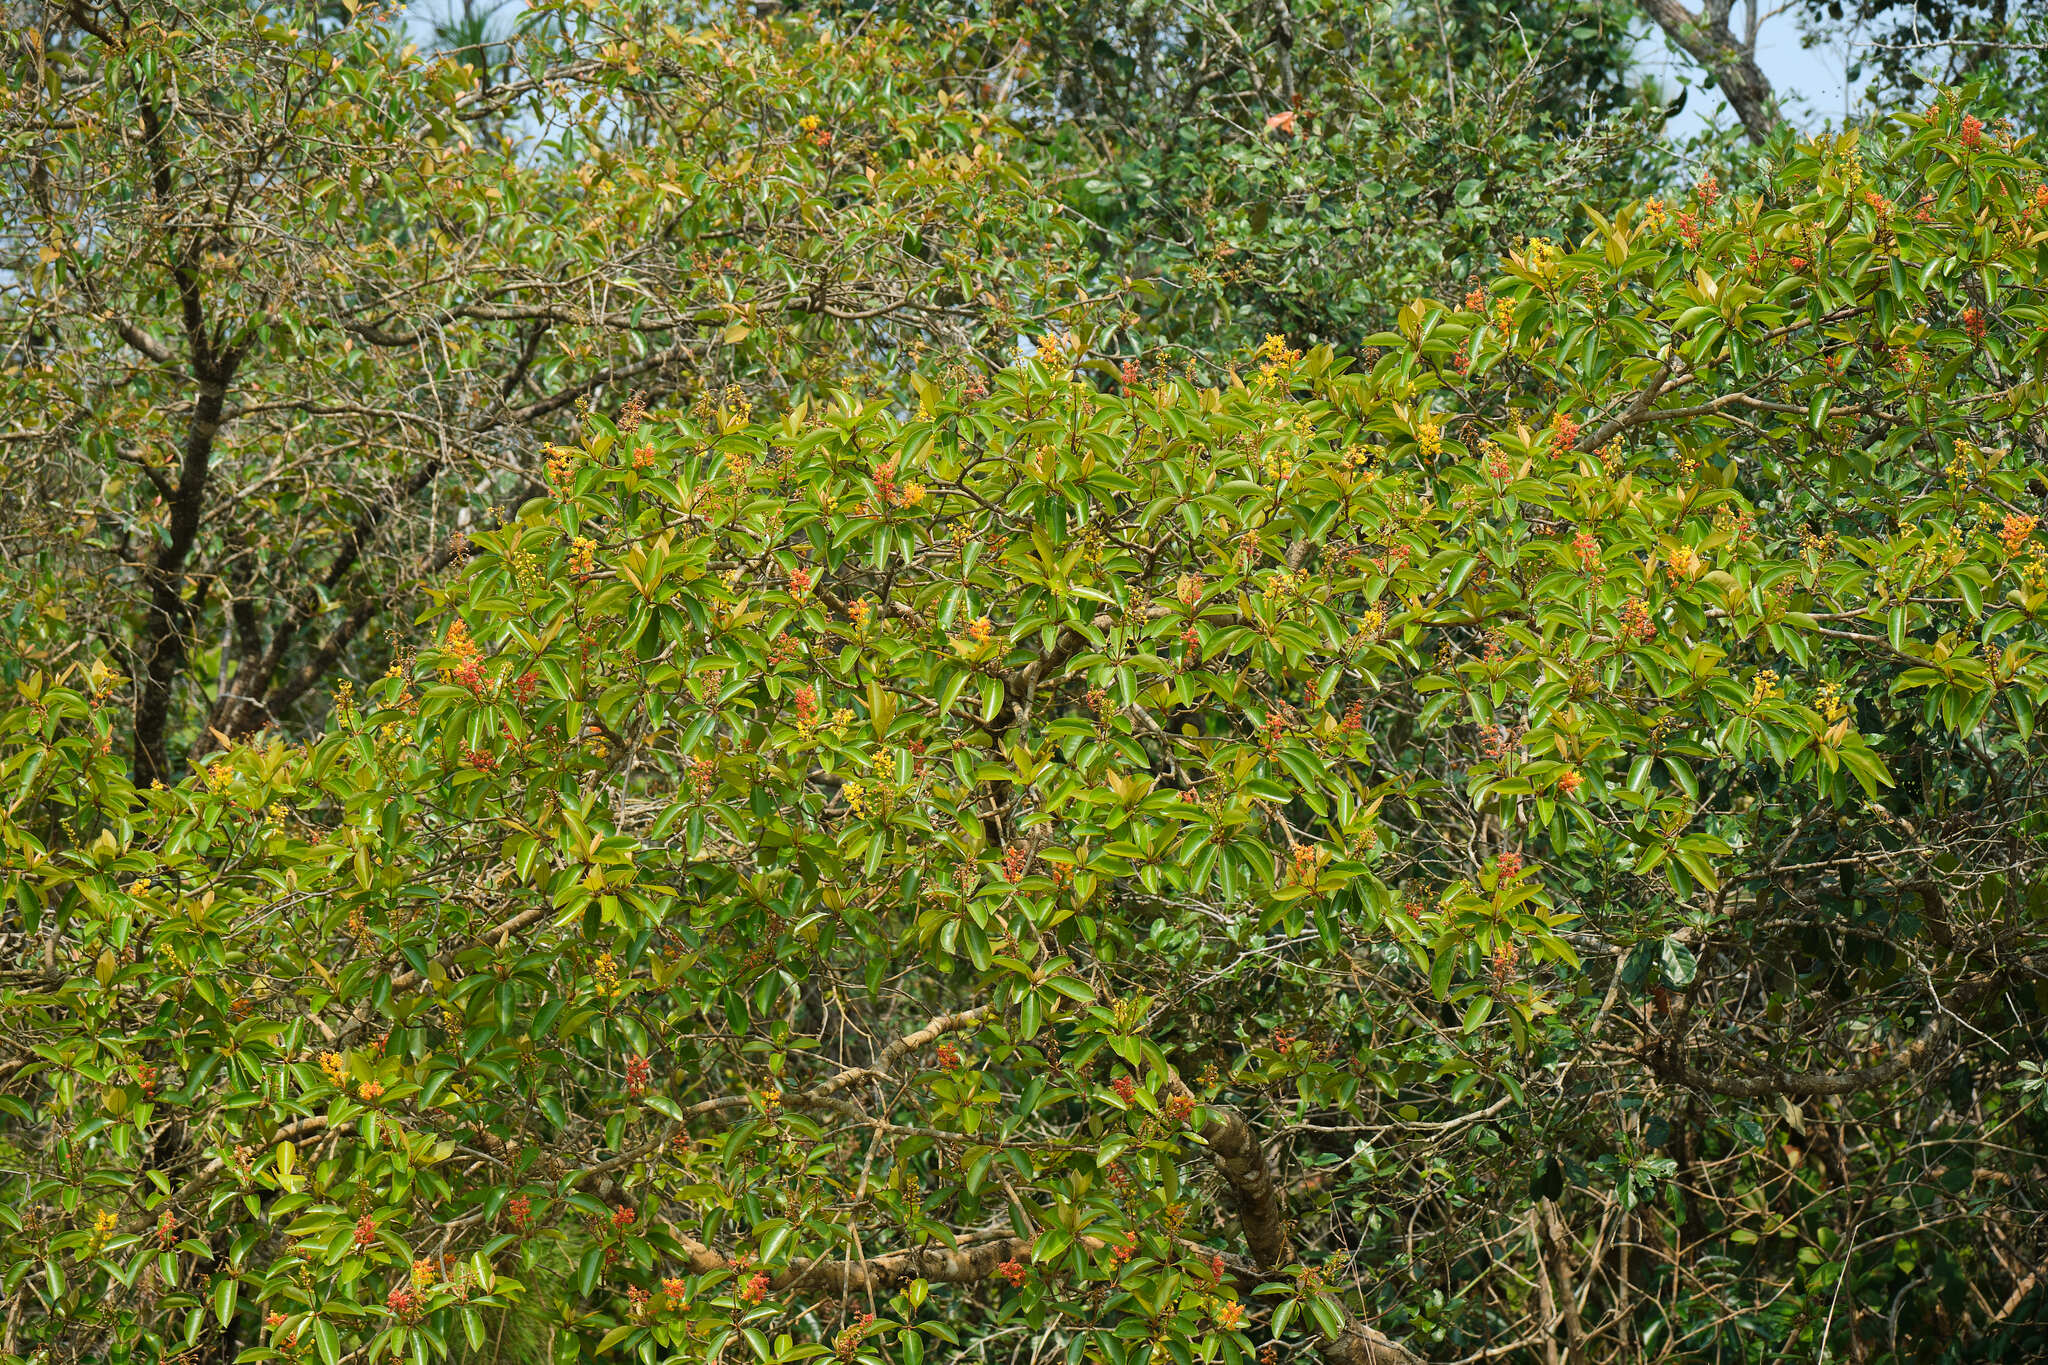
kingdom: Plantae
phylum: Tracheophyta
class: Magnoliopsida
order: Malpighiales
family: Malpighiaceae
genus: Byrsonima
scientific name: Byrsonima crassifolia
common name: Golden spoon
